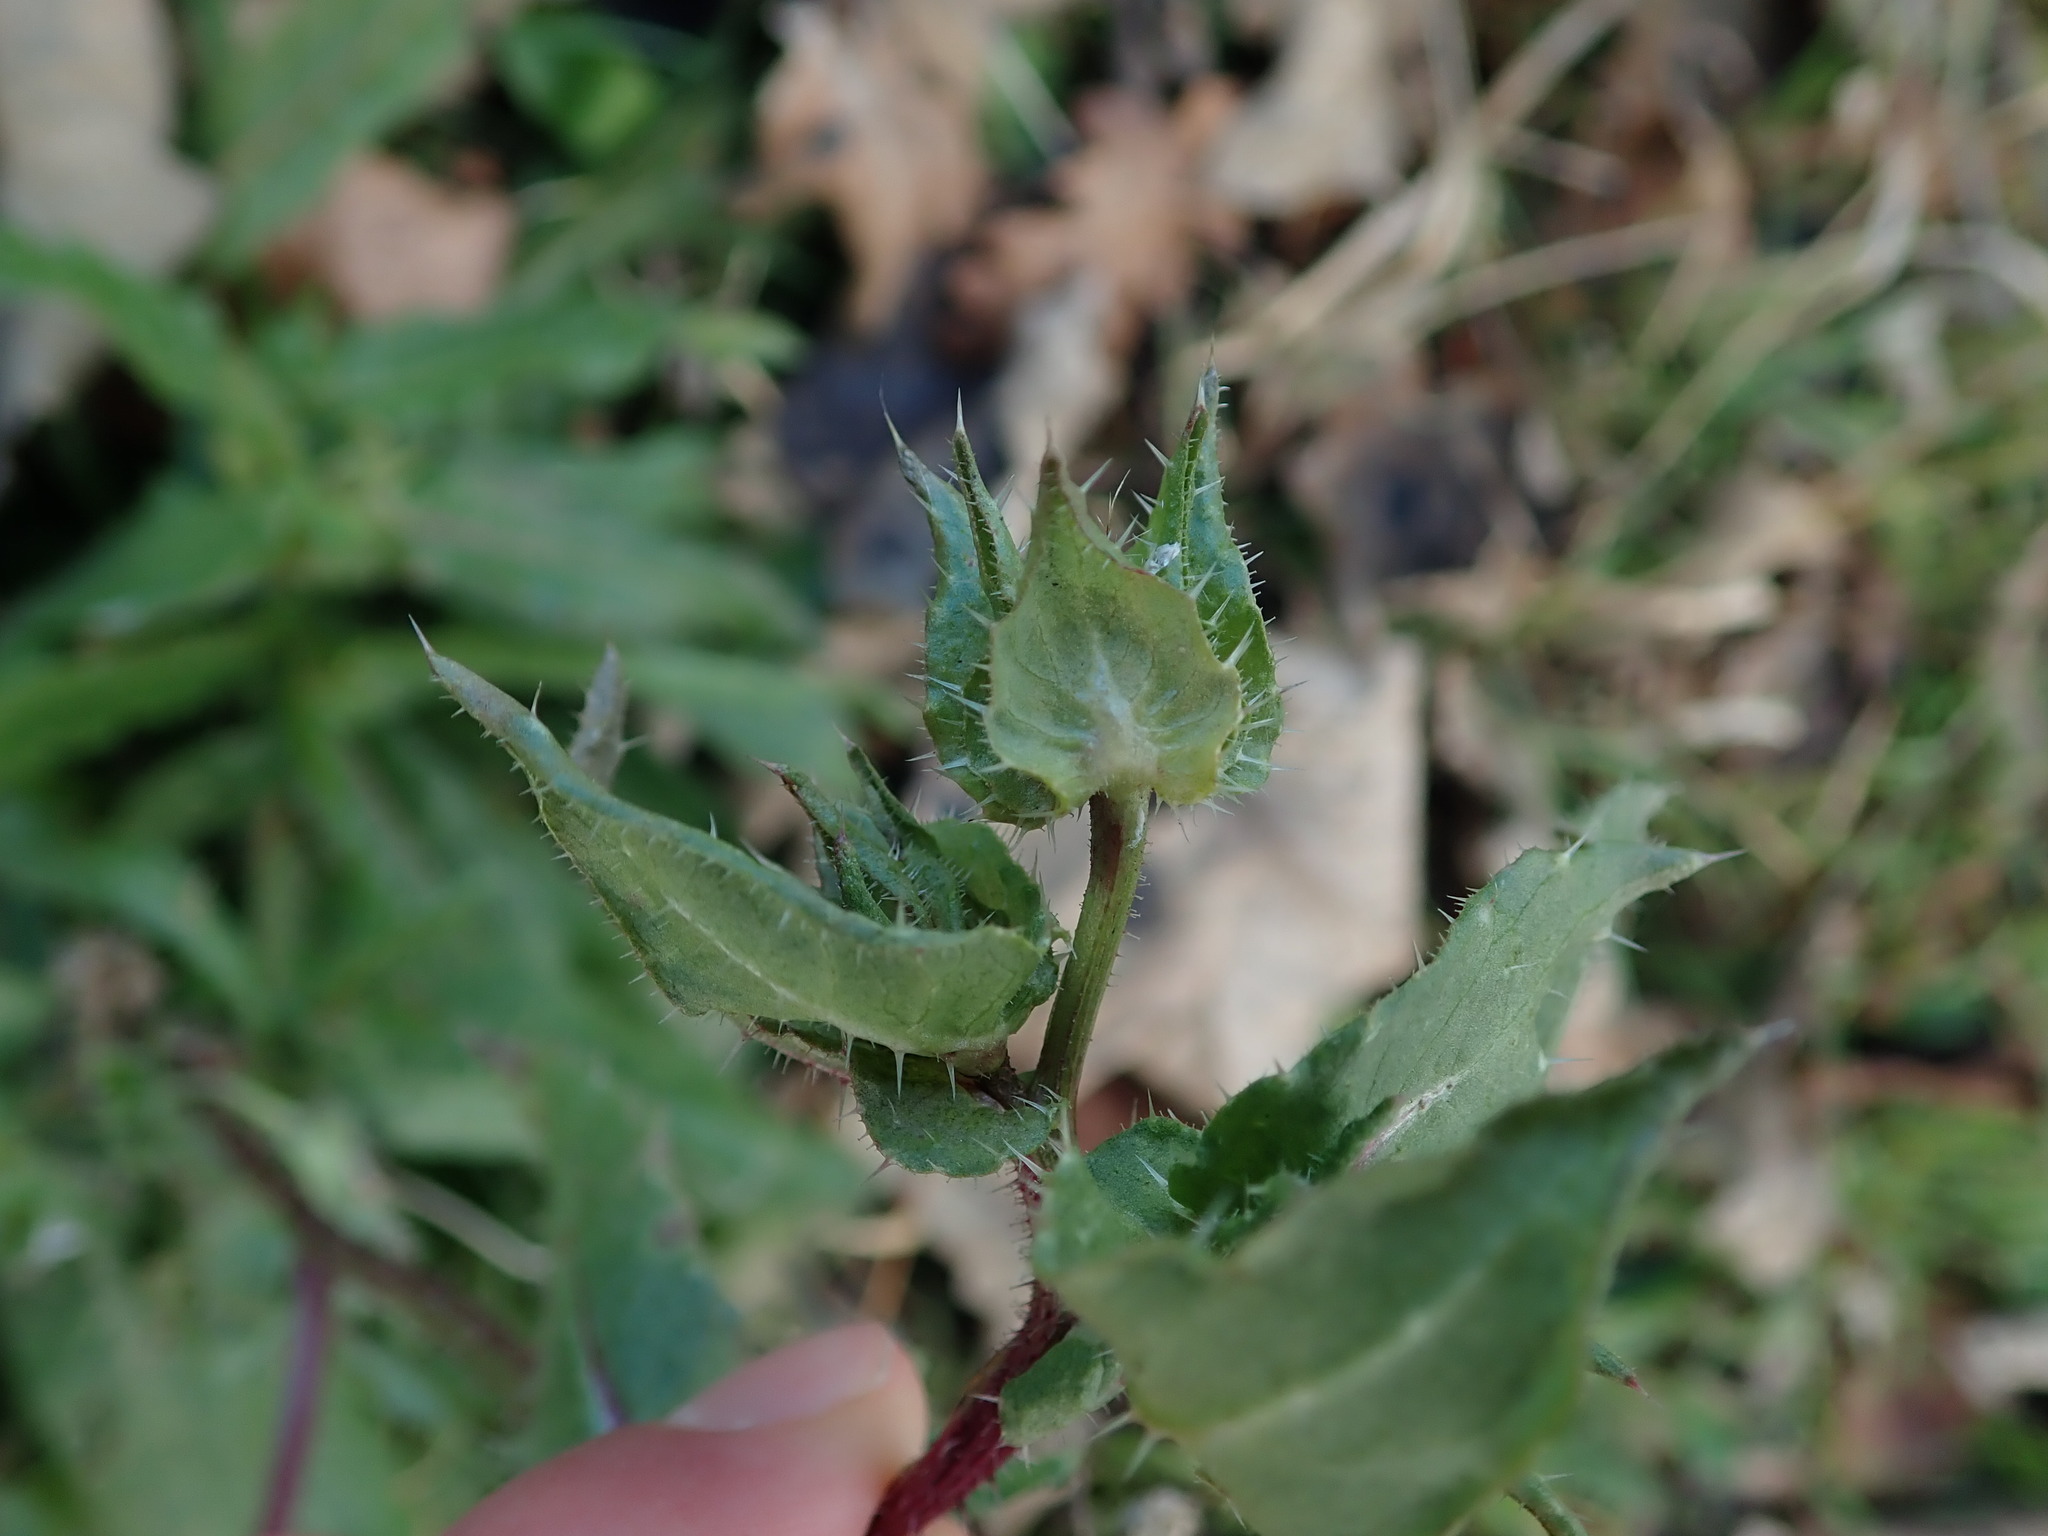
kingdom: Plantae
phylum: Tracheophyta
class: Magnoliopsida
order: Asterales
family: Asteraceae
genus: Helminthotheca
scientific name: Helminthotheca echioides
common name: Ox-tongue
